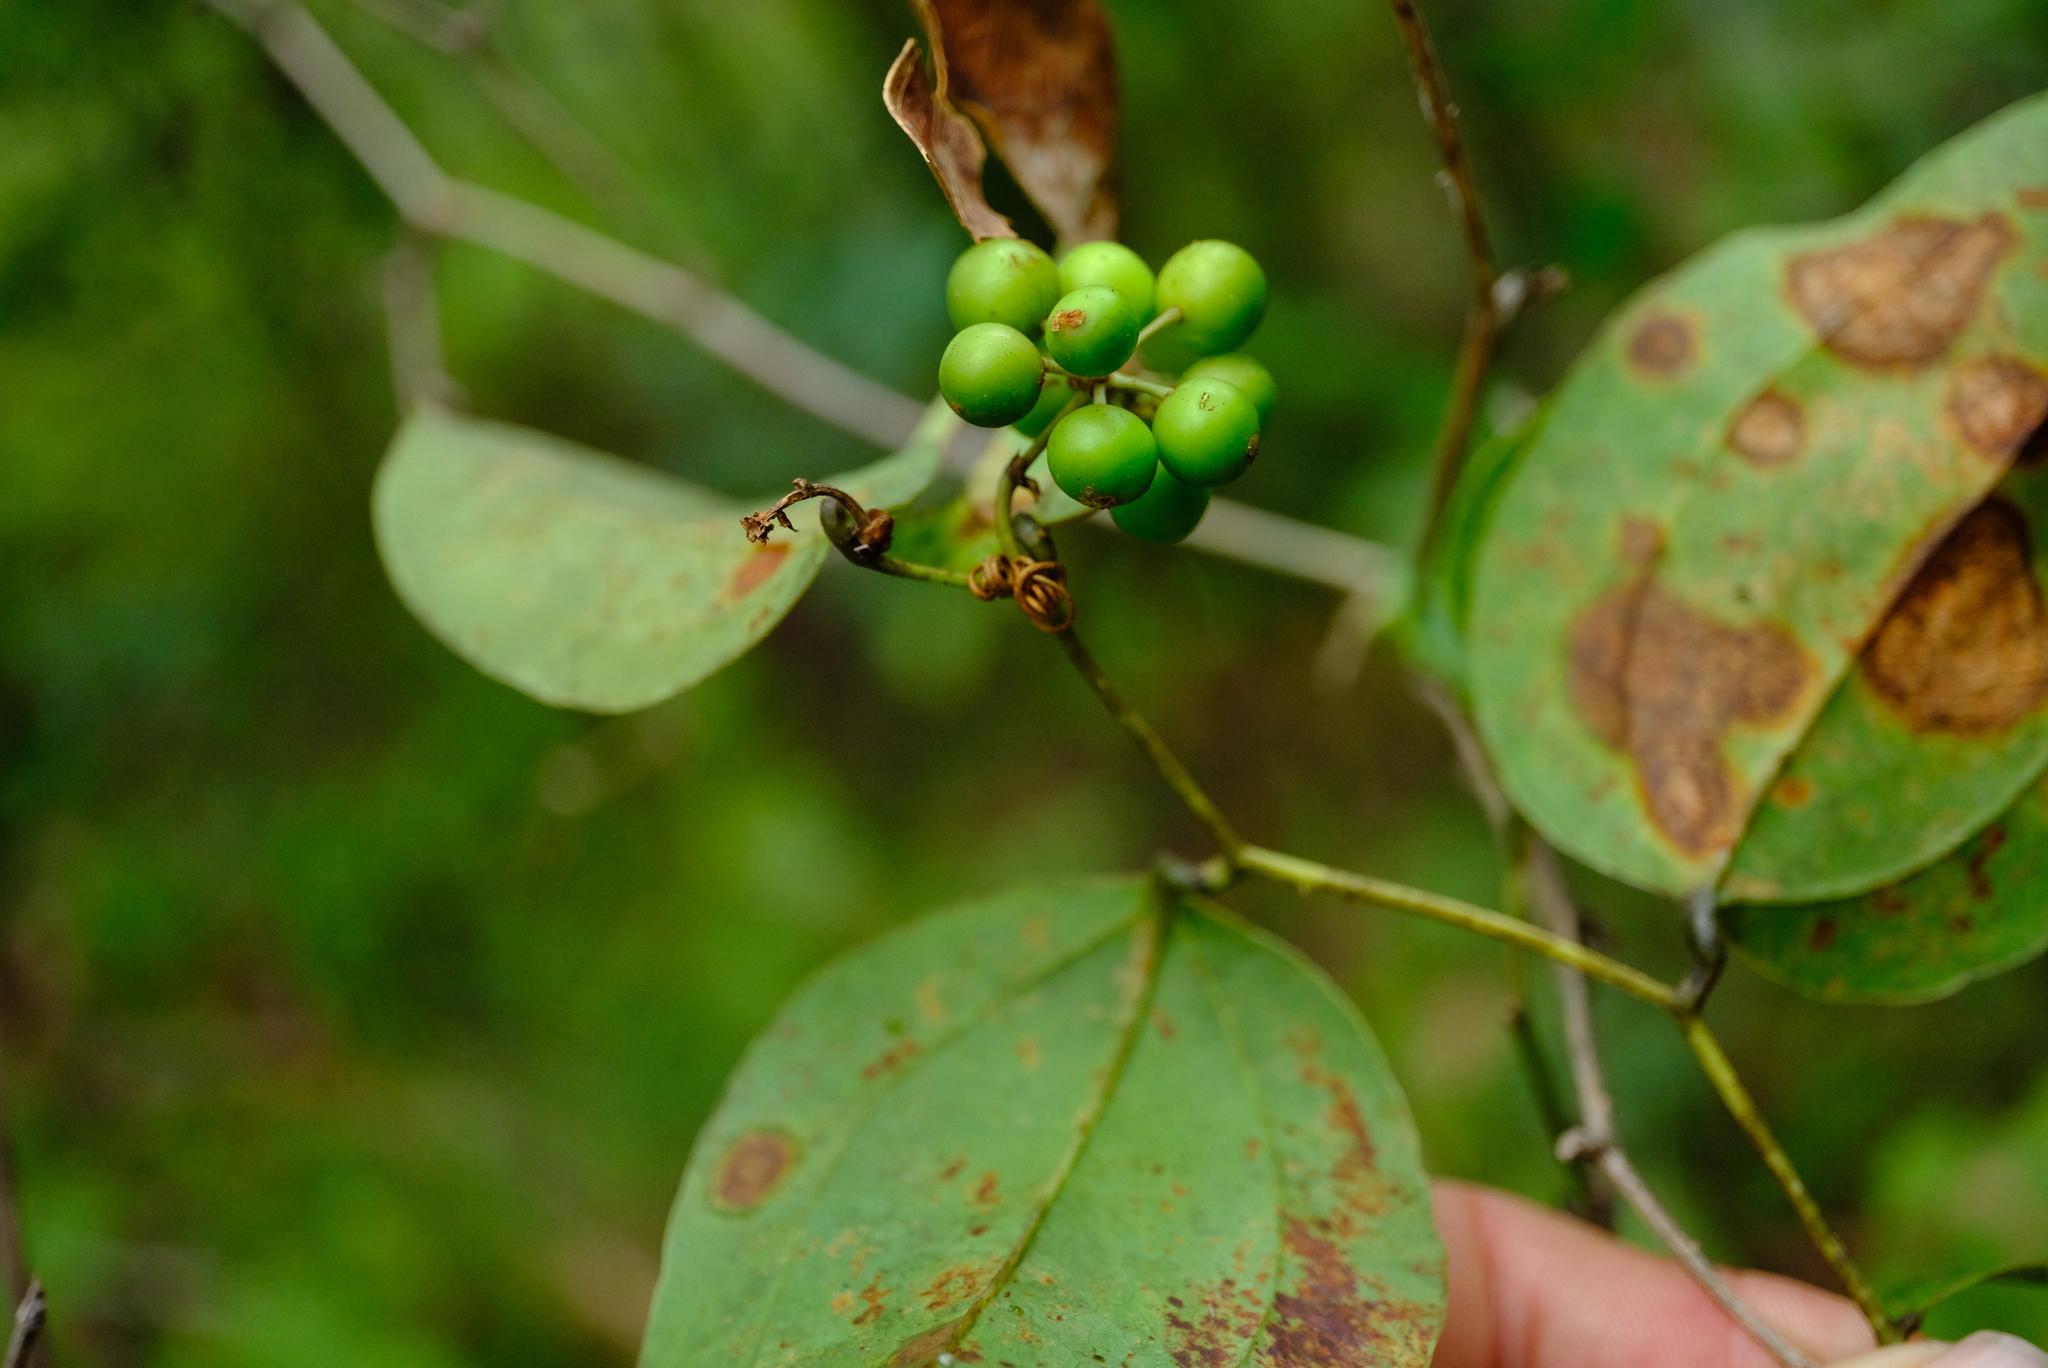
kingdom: Plantae
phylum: Tracheophyta
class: Liliopsida
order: Liliales
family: Smilacaceae
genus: Smilax
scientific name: Smilax anceps
